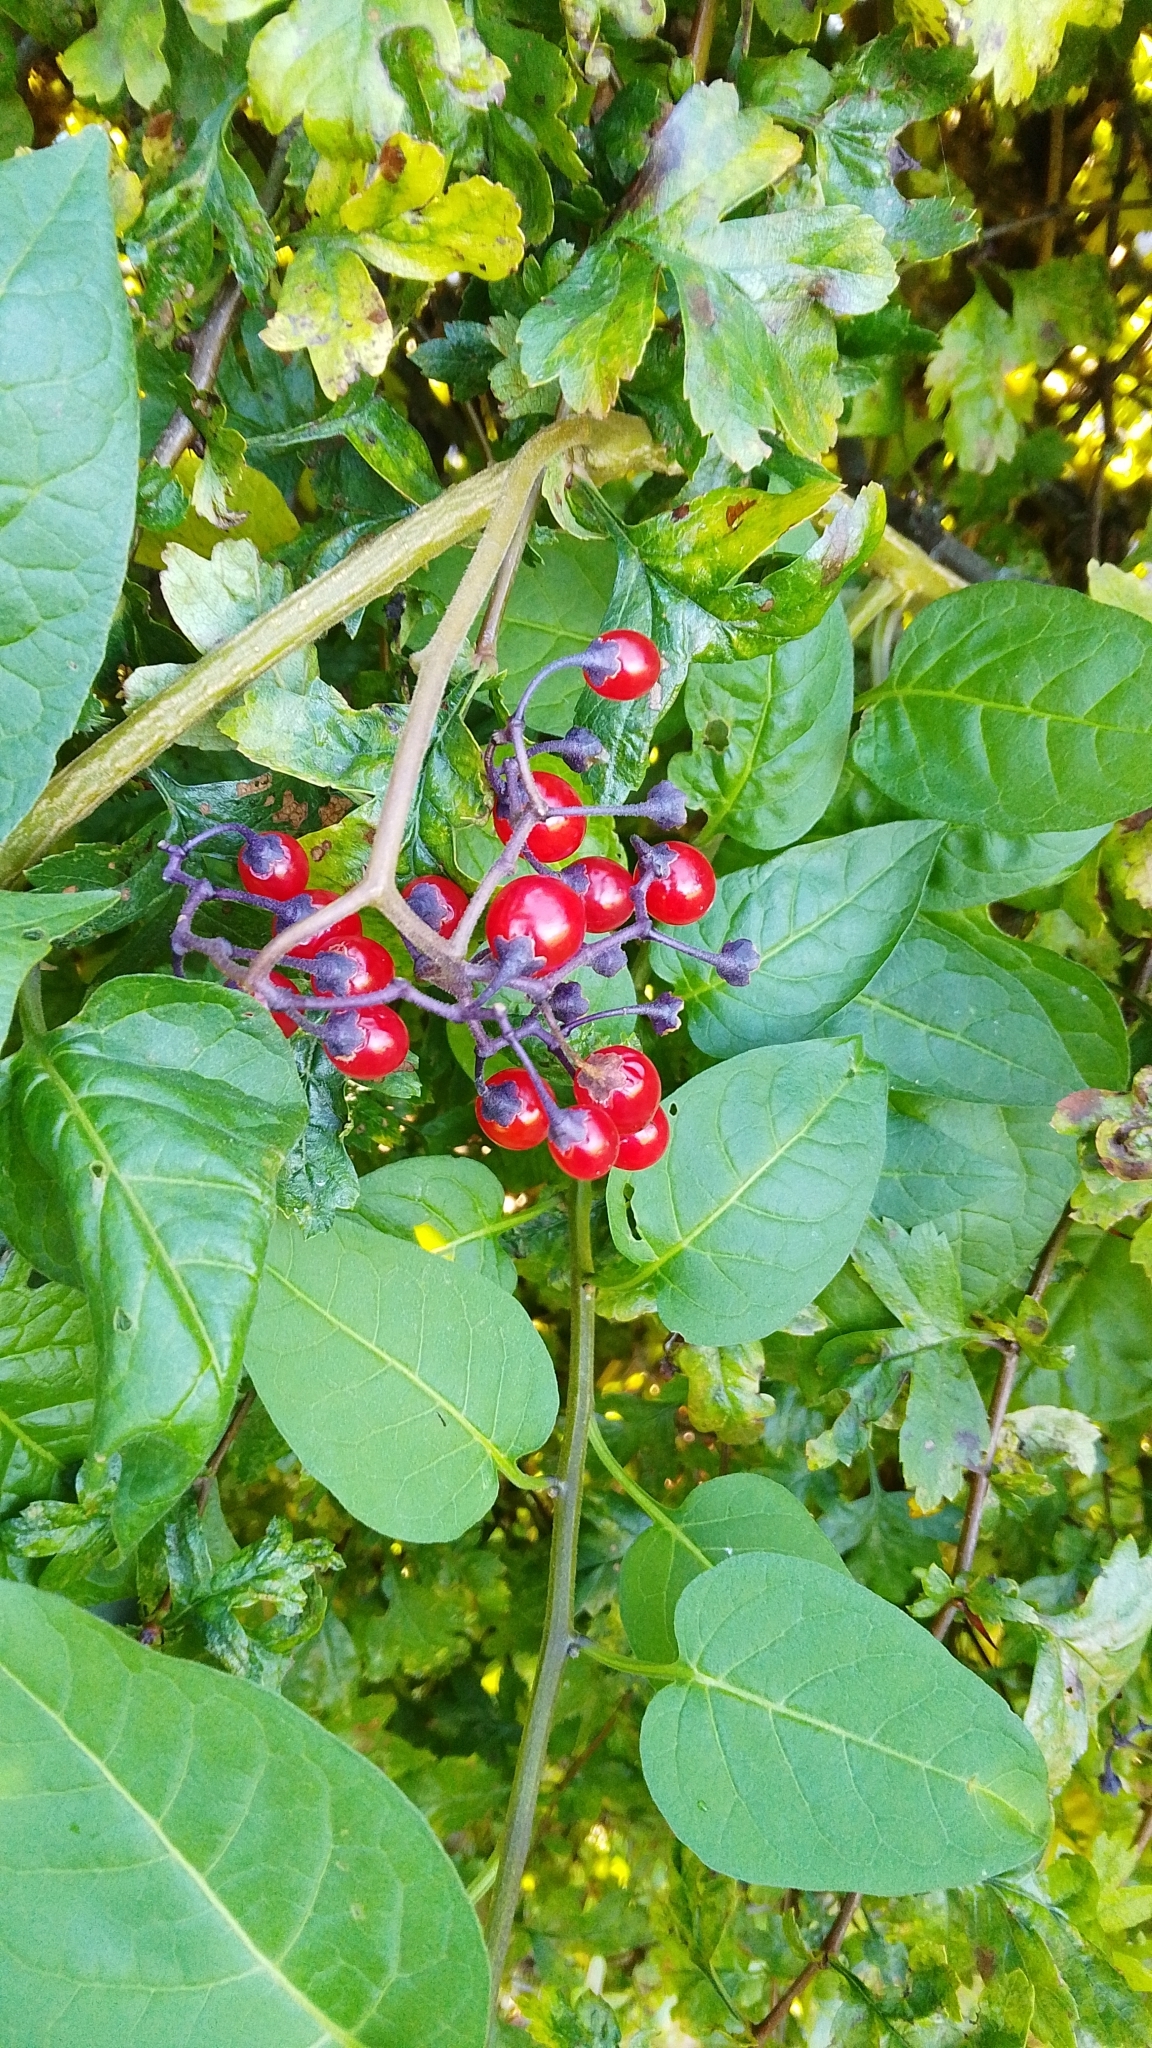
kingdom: Plantae
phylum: Tracheophyta
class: Magnoliopsida
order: Solanales
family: Solanaceae
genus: Solanum
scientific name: Solanum dulcamara
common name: Climbing nightshade
